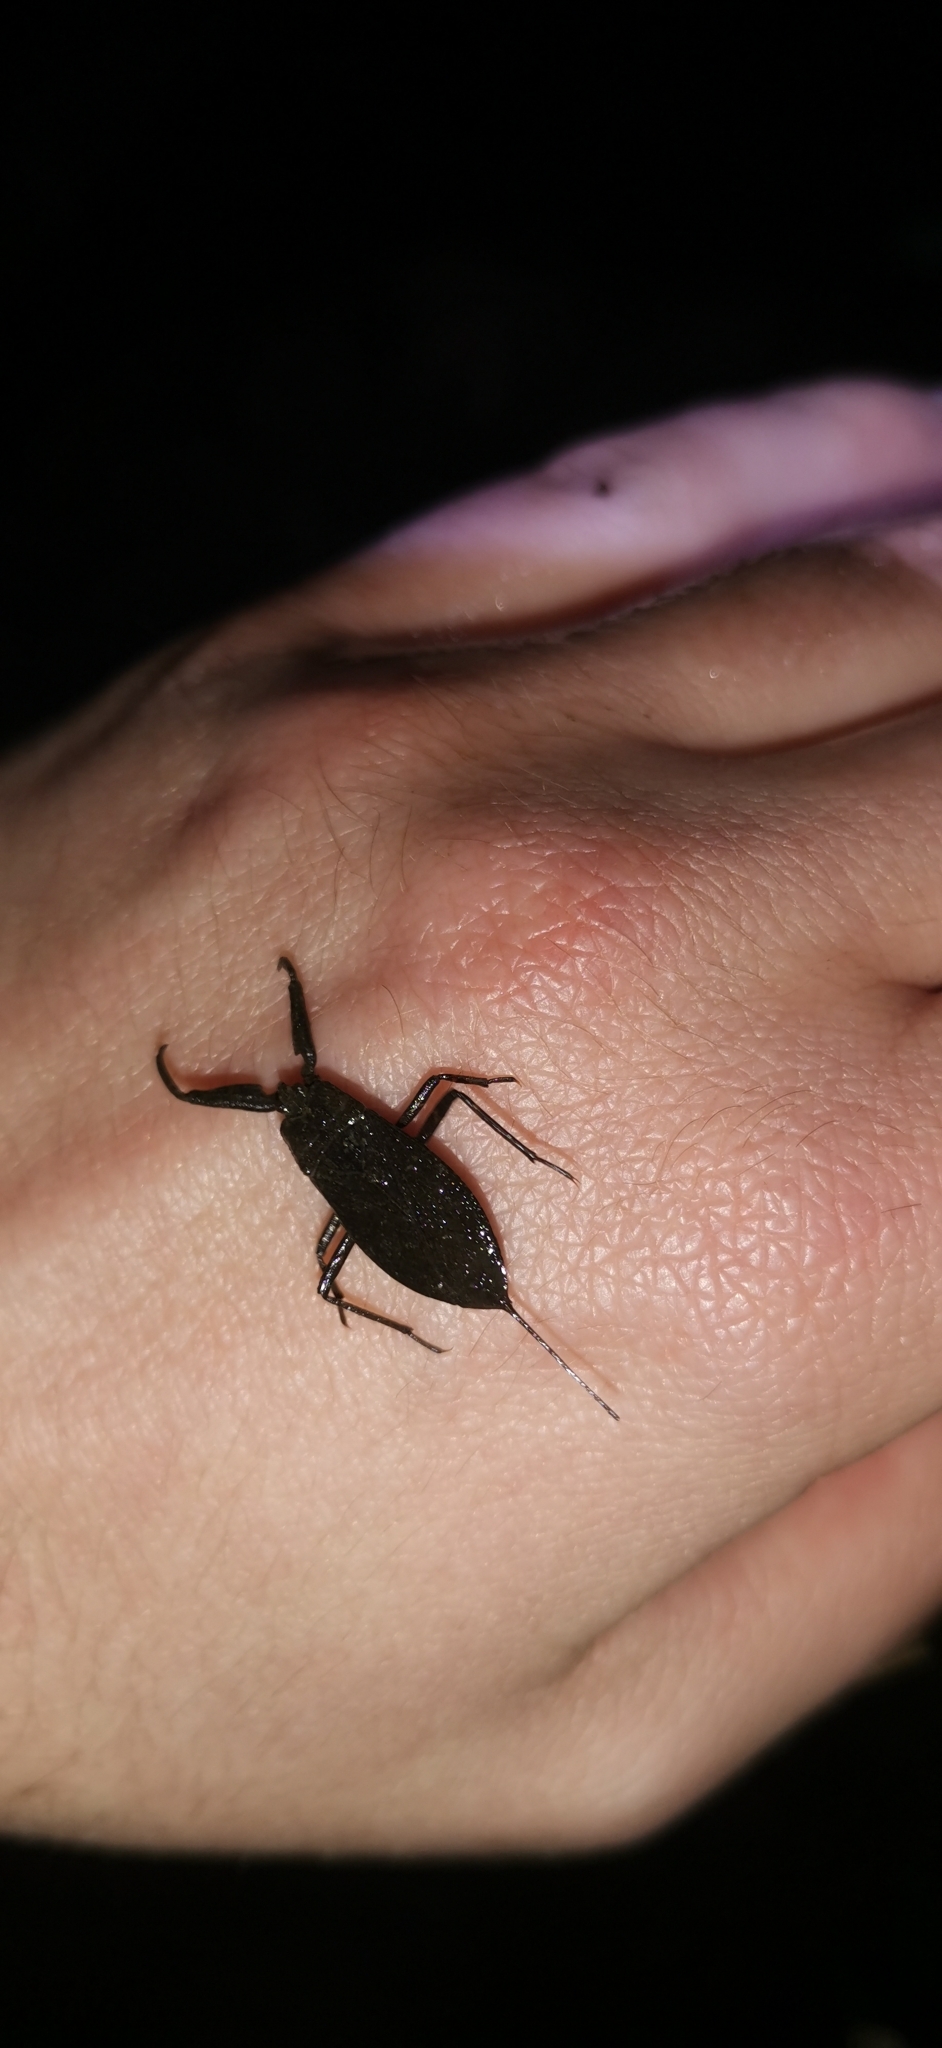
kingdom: Animalia
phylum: Arthropoda
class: Insecta
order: Hemiptera
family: Nepidae
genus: Nepa
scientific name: Nepa cinerea
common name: Water scorpion
